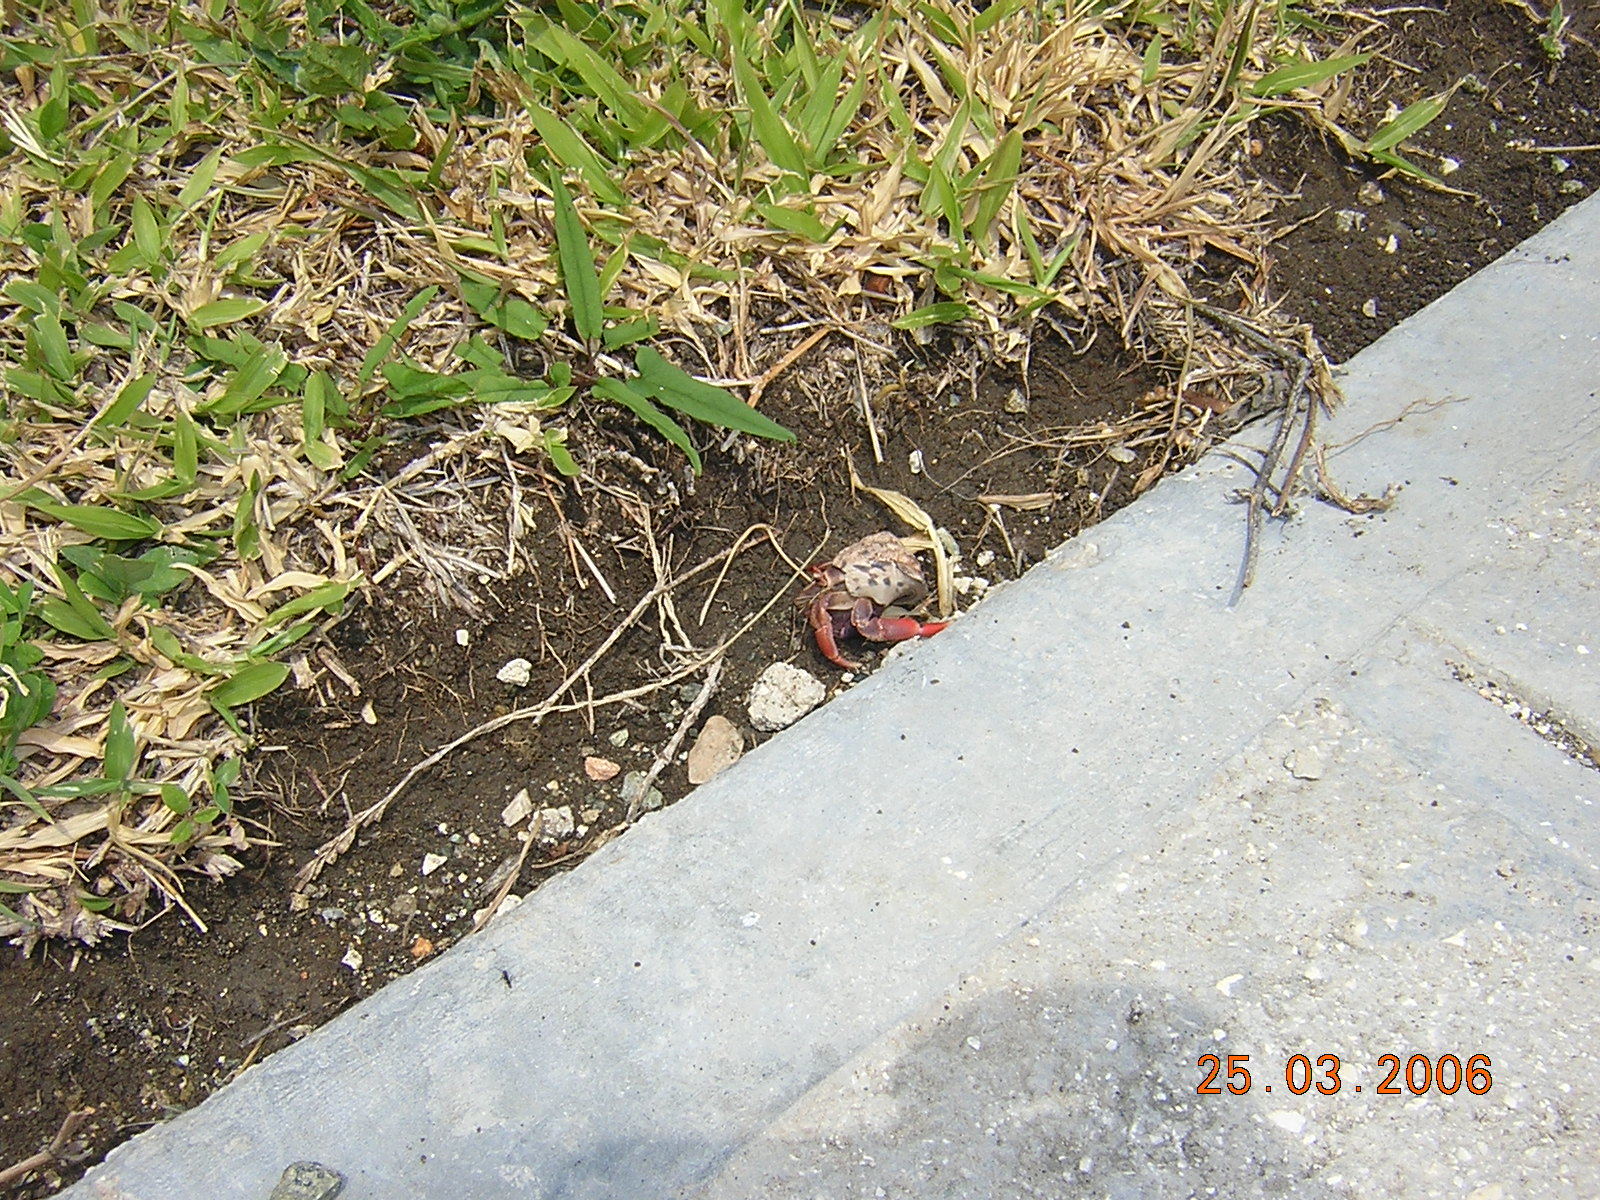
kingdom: Animalia
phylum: Arthropoda
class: Malacostraca
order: Decapoda
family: Coenobitidae
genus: Coenobita
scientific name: Coenobita clypeatus
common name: Caribbean hermit crab
